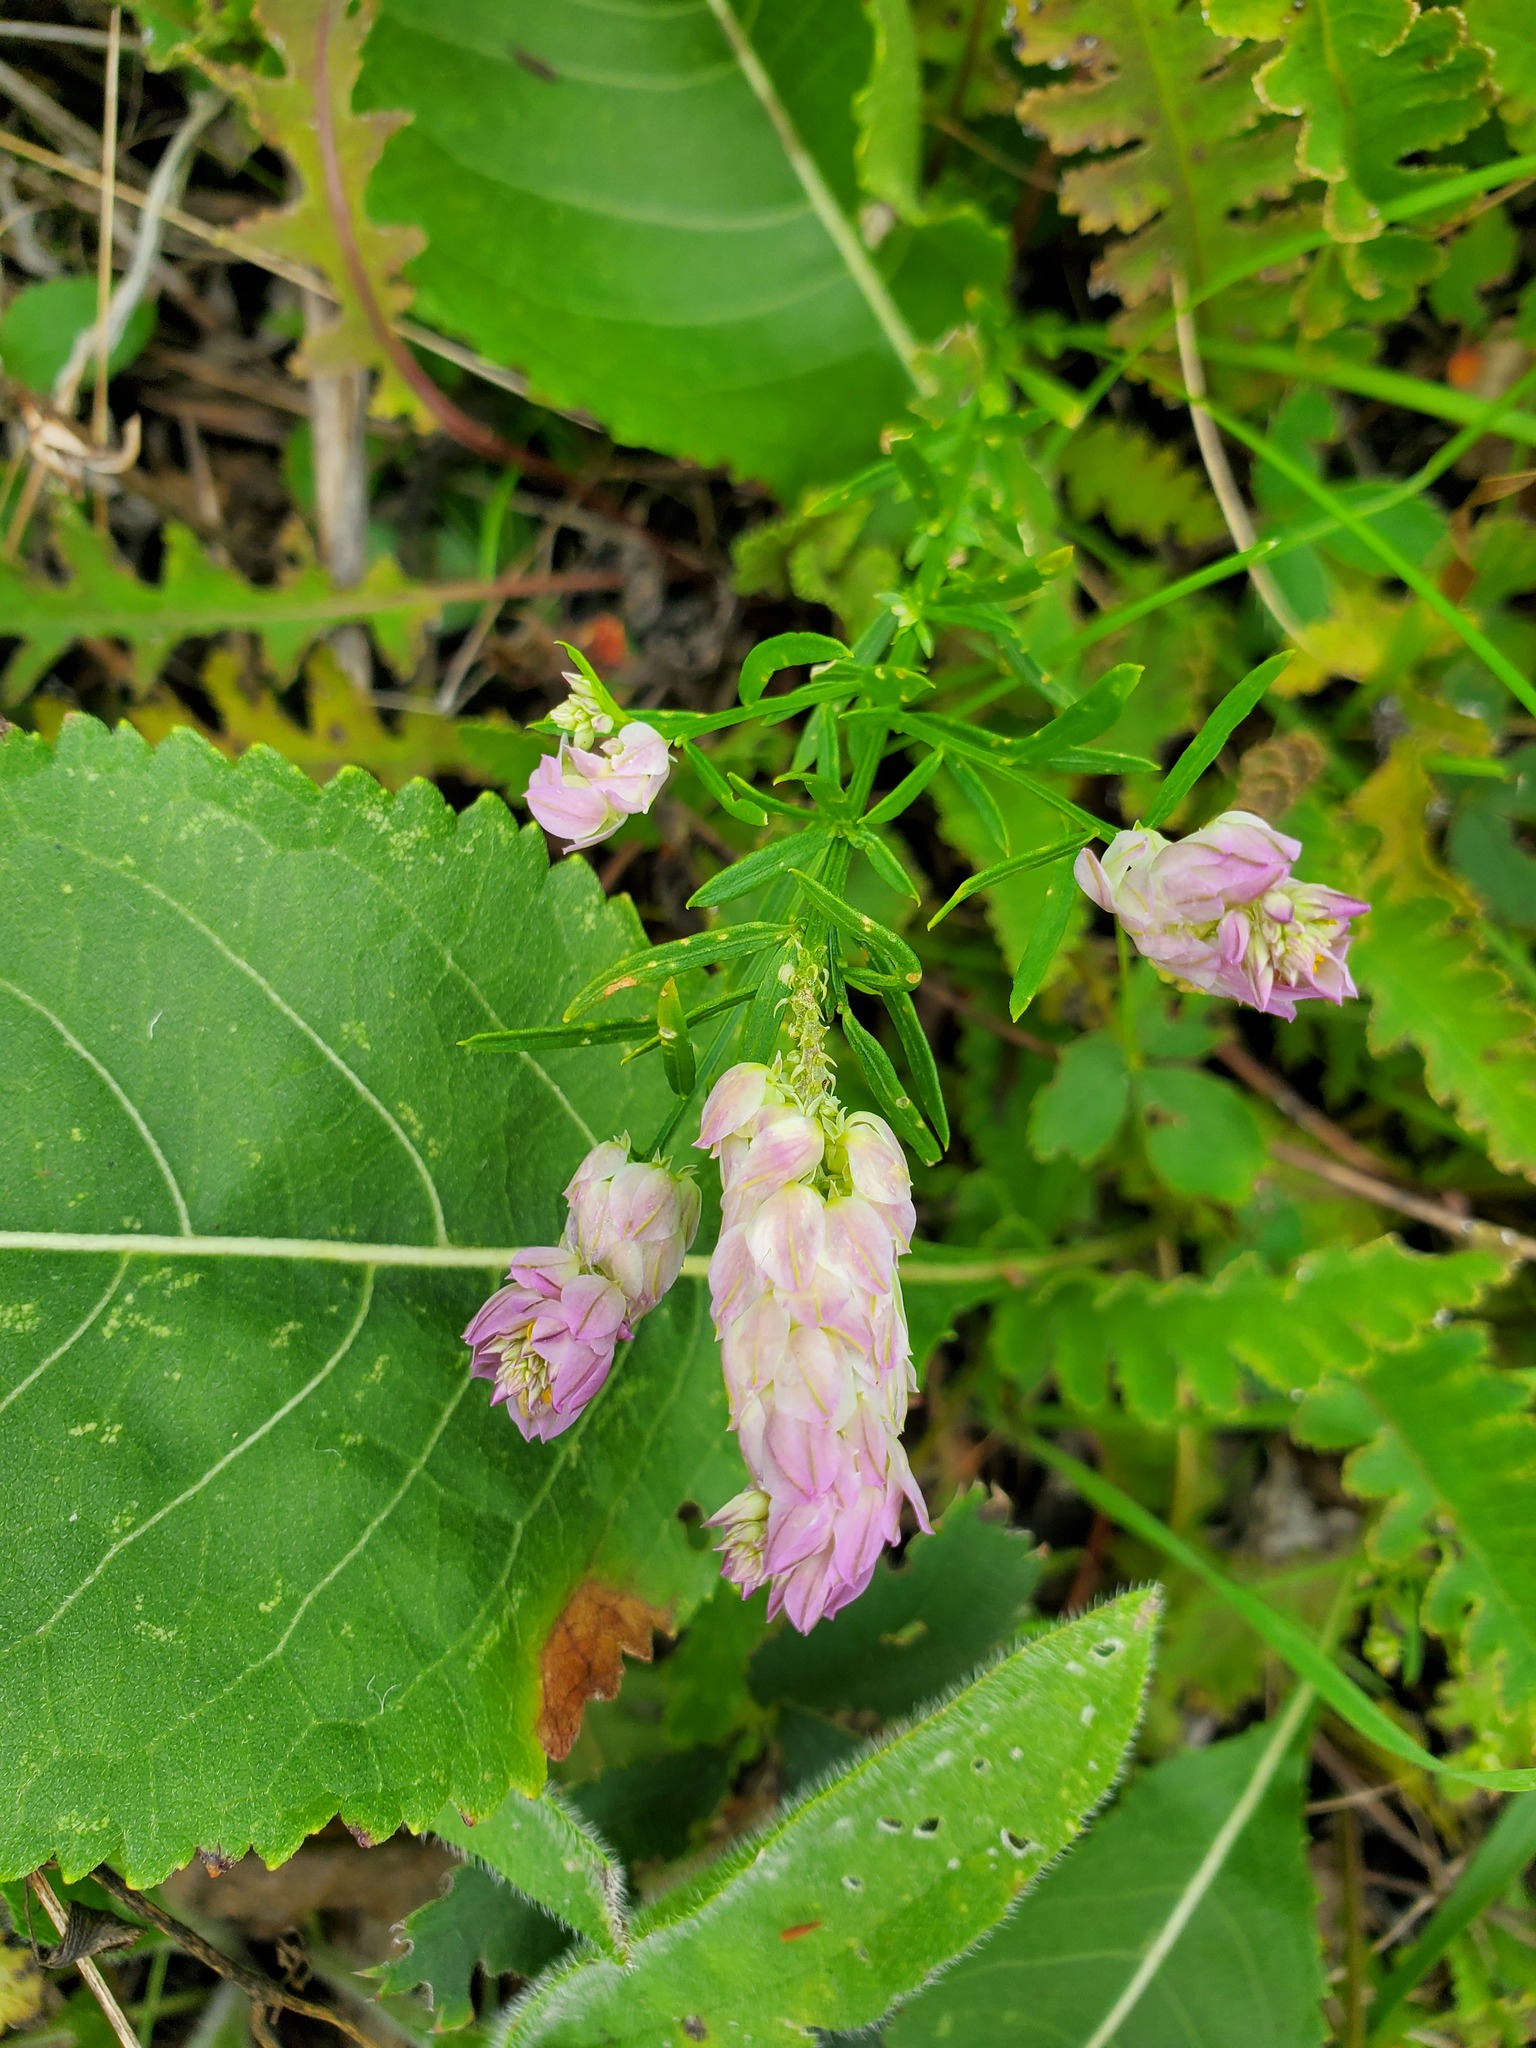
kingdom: Plantae
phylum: Tracheophyta
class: Magnoliopsida
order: Fabales
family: Polygalaceae
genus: Polygala
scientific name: Polygala sanguinea
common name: Blood milkwort
